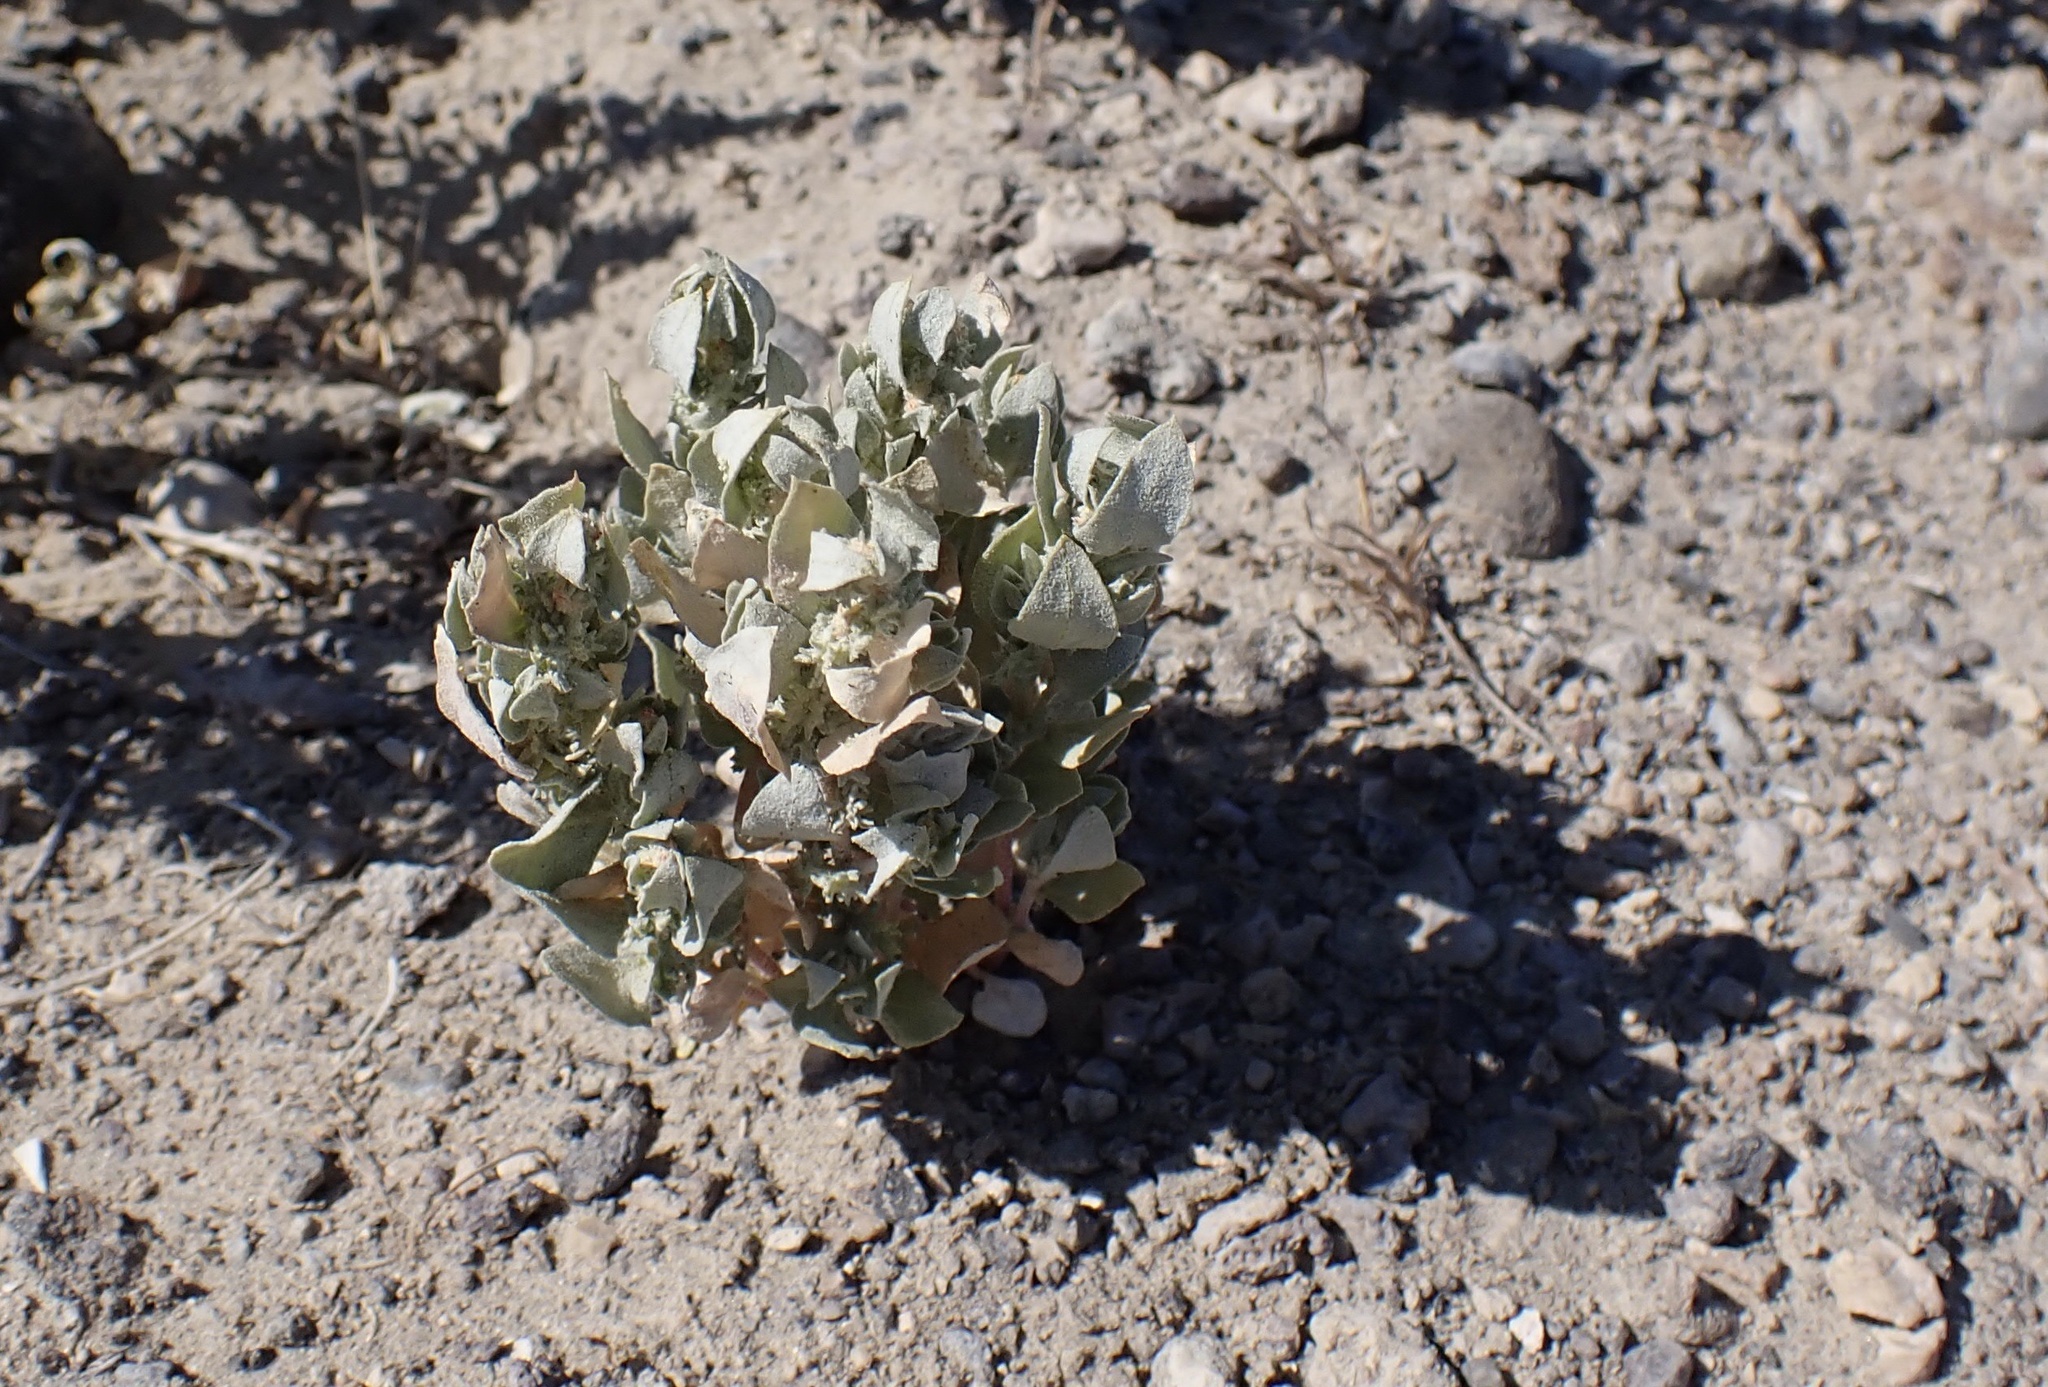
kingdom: Plantae
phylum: Tracheophyta
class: Magnoliopsida
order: Caryophyllales
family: Amaranthaceae
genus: Atriplex
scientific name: Atriplex confertifolia
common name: Shadscale
